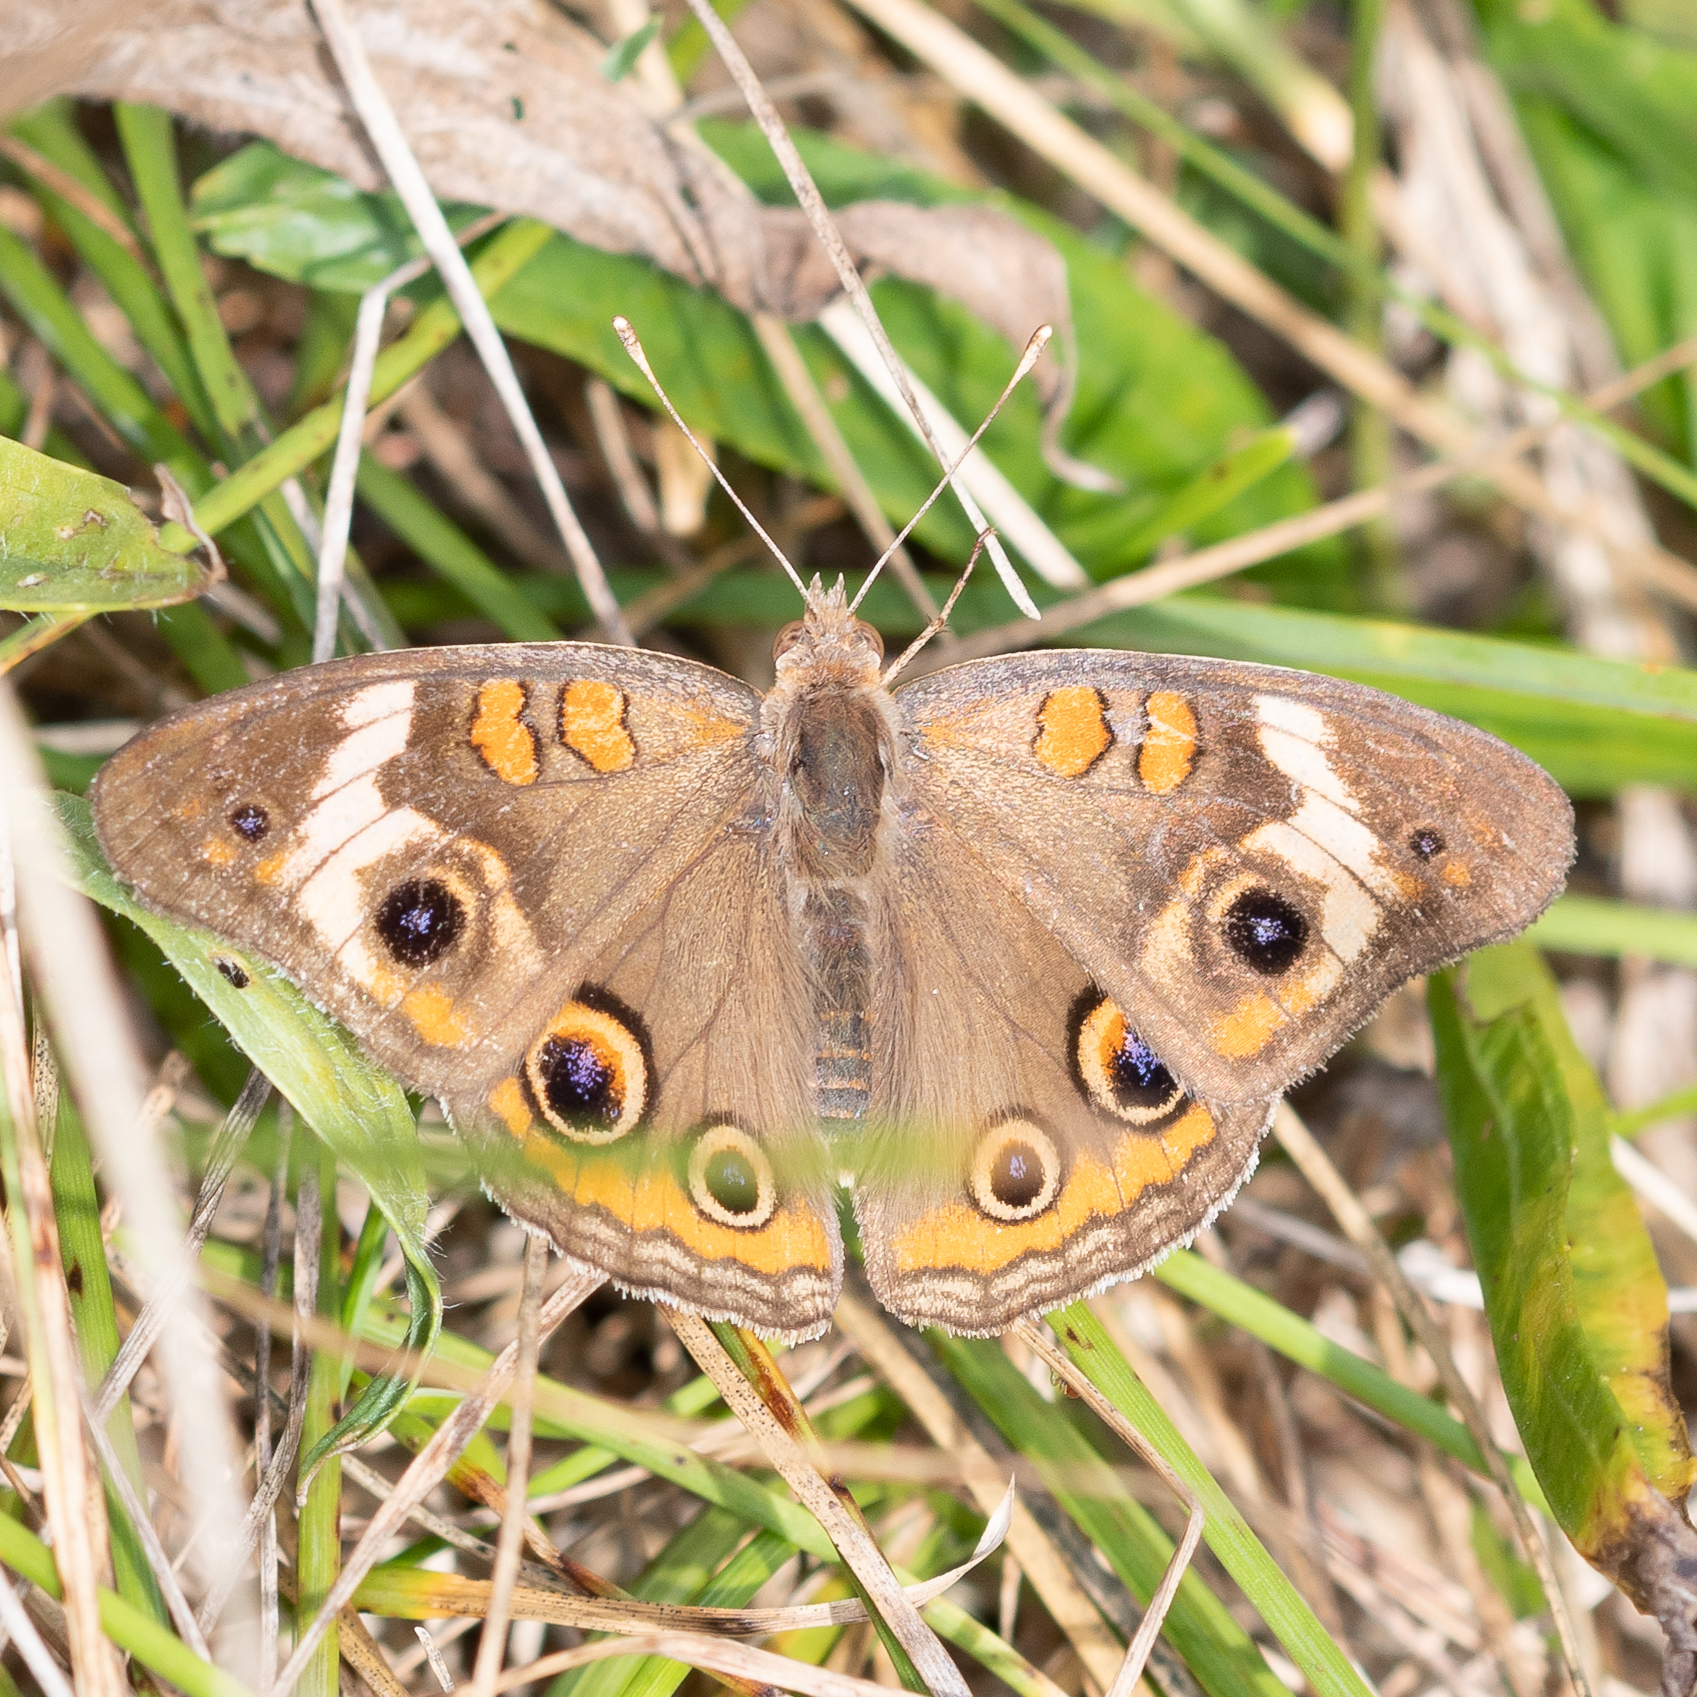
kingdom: Animalia
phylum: Arthropoda
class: Insecta
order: Lepidoptera
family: Nymphalidae
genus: Junonia
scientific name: Junonia coenia
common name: Common buckeye
